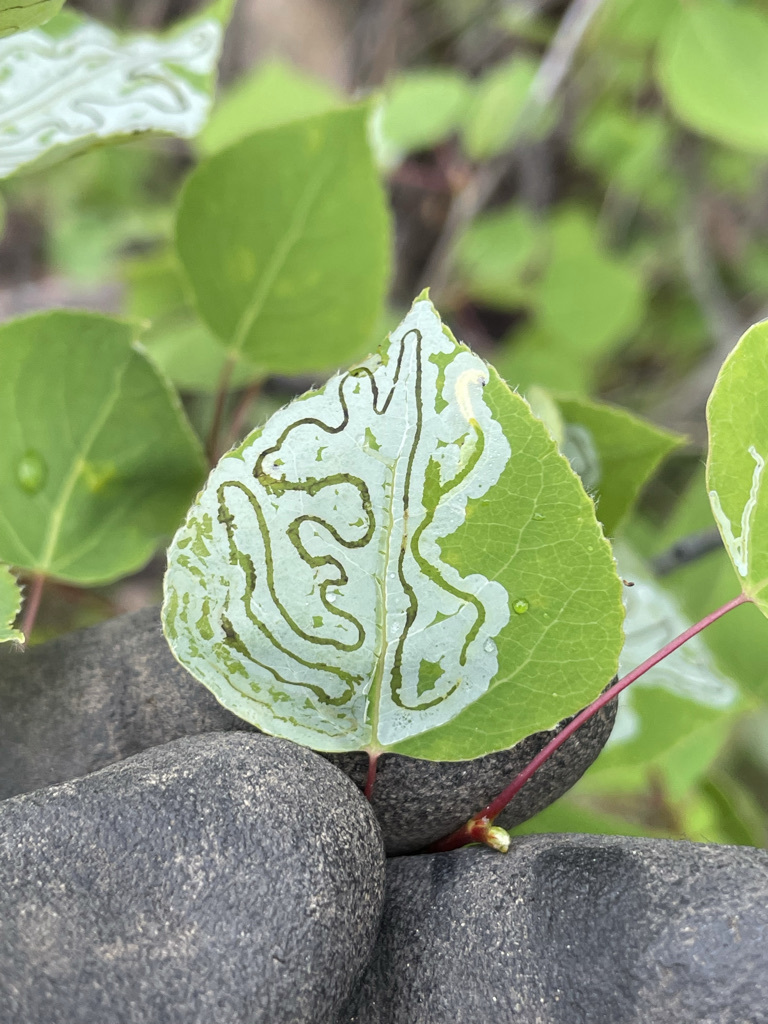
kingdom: Animalia
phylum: Arthropoda
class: Insecta
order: Lepidoptera
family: Gracillariidae
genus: Phyllocnistis
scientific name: Phyllocnistis populiella
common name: Aspen serpentine leafminer moth
